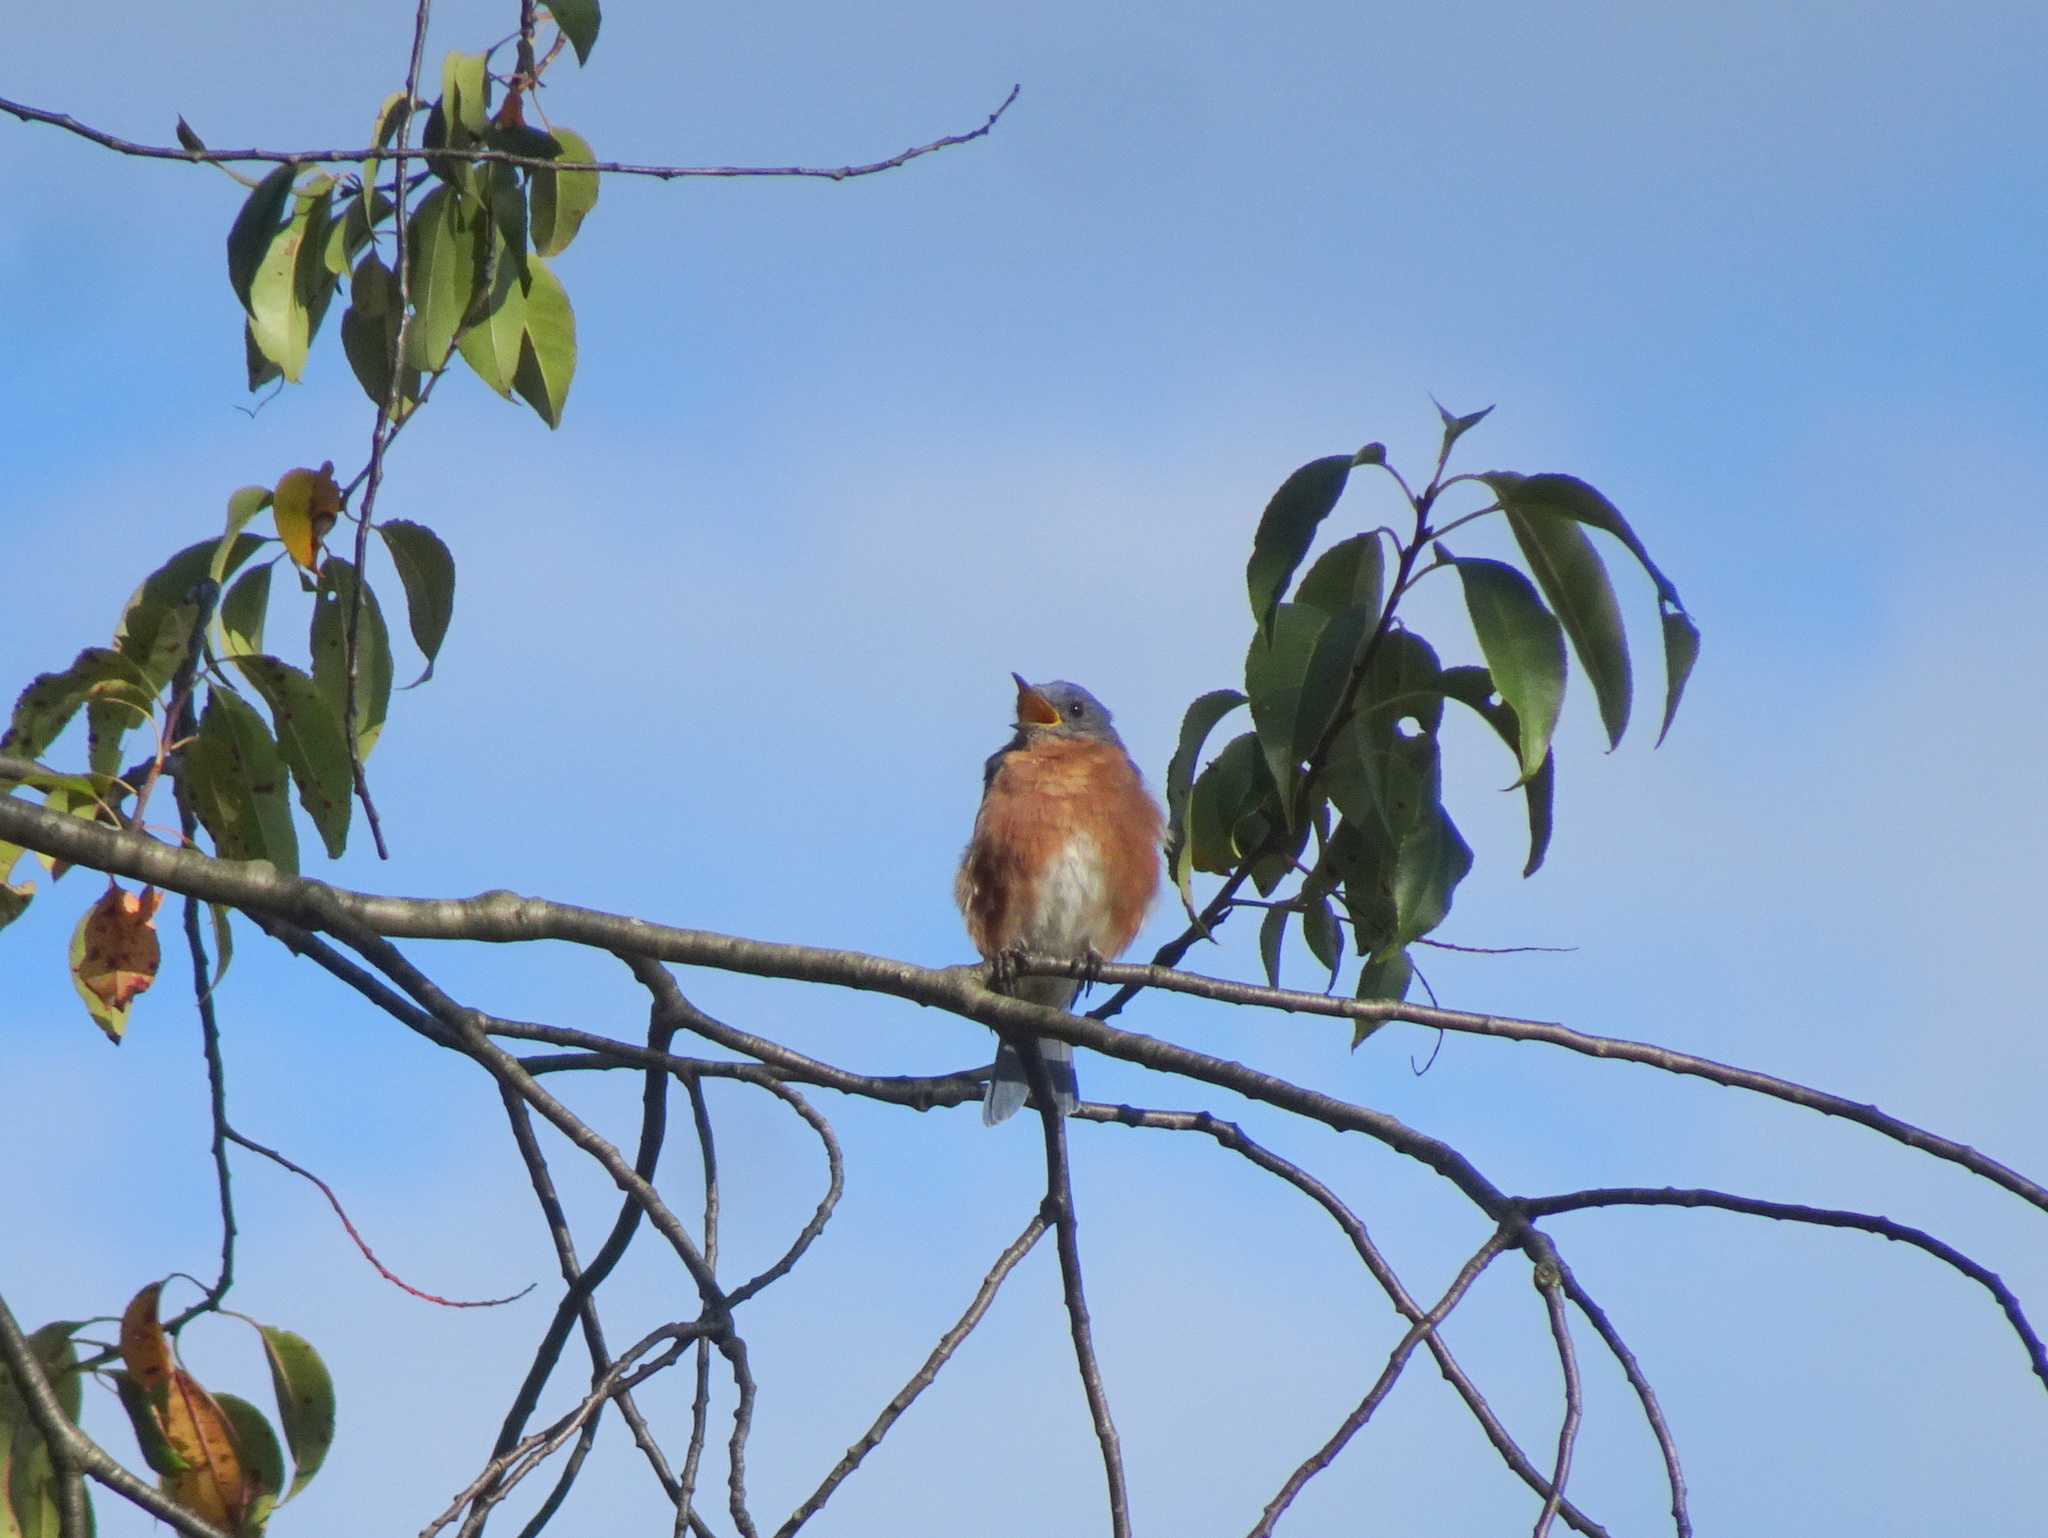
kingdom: Animalia
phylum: Chordata
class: Aves
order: Passeriformes
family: Turdidae
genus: Sialia
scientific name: Sialia sialis
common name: Eastern bluebird
